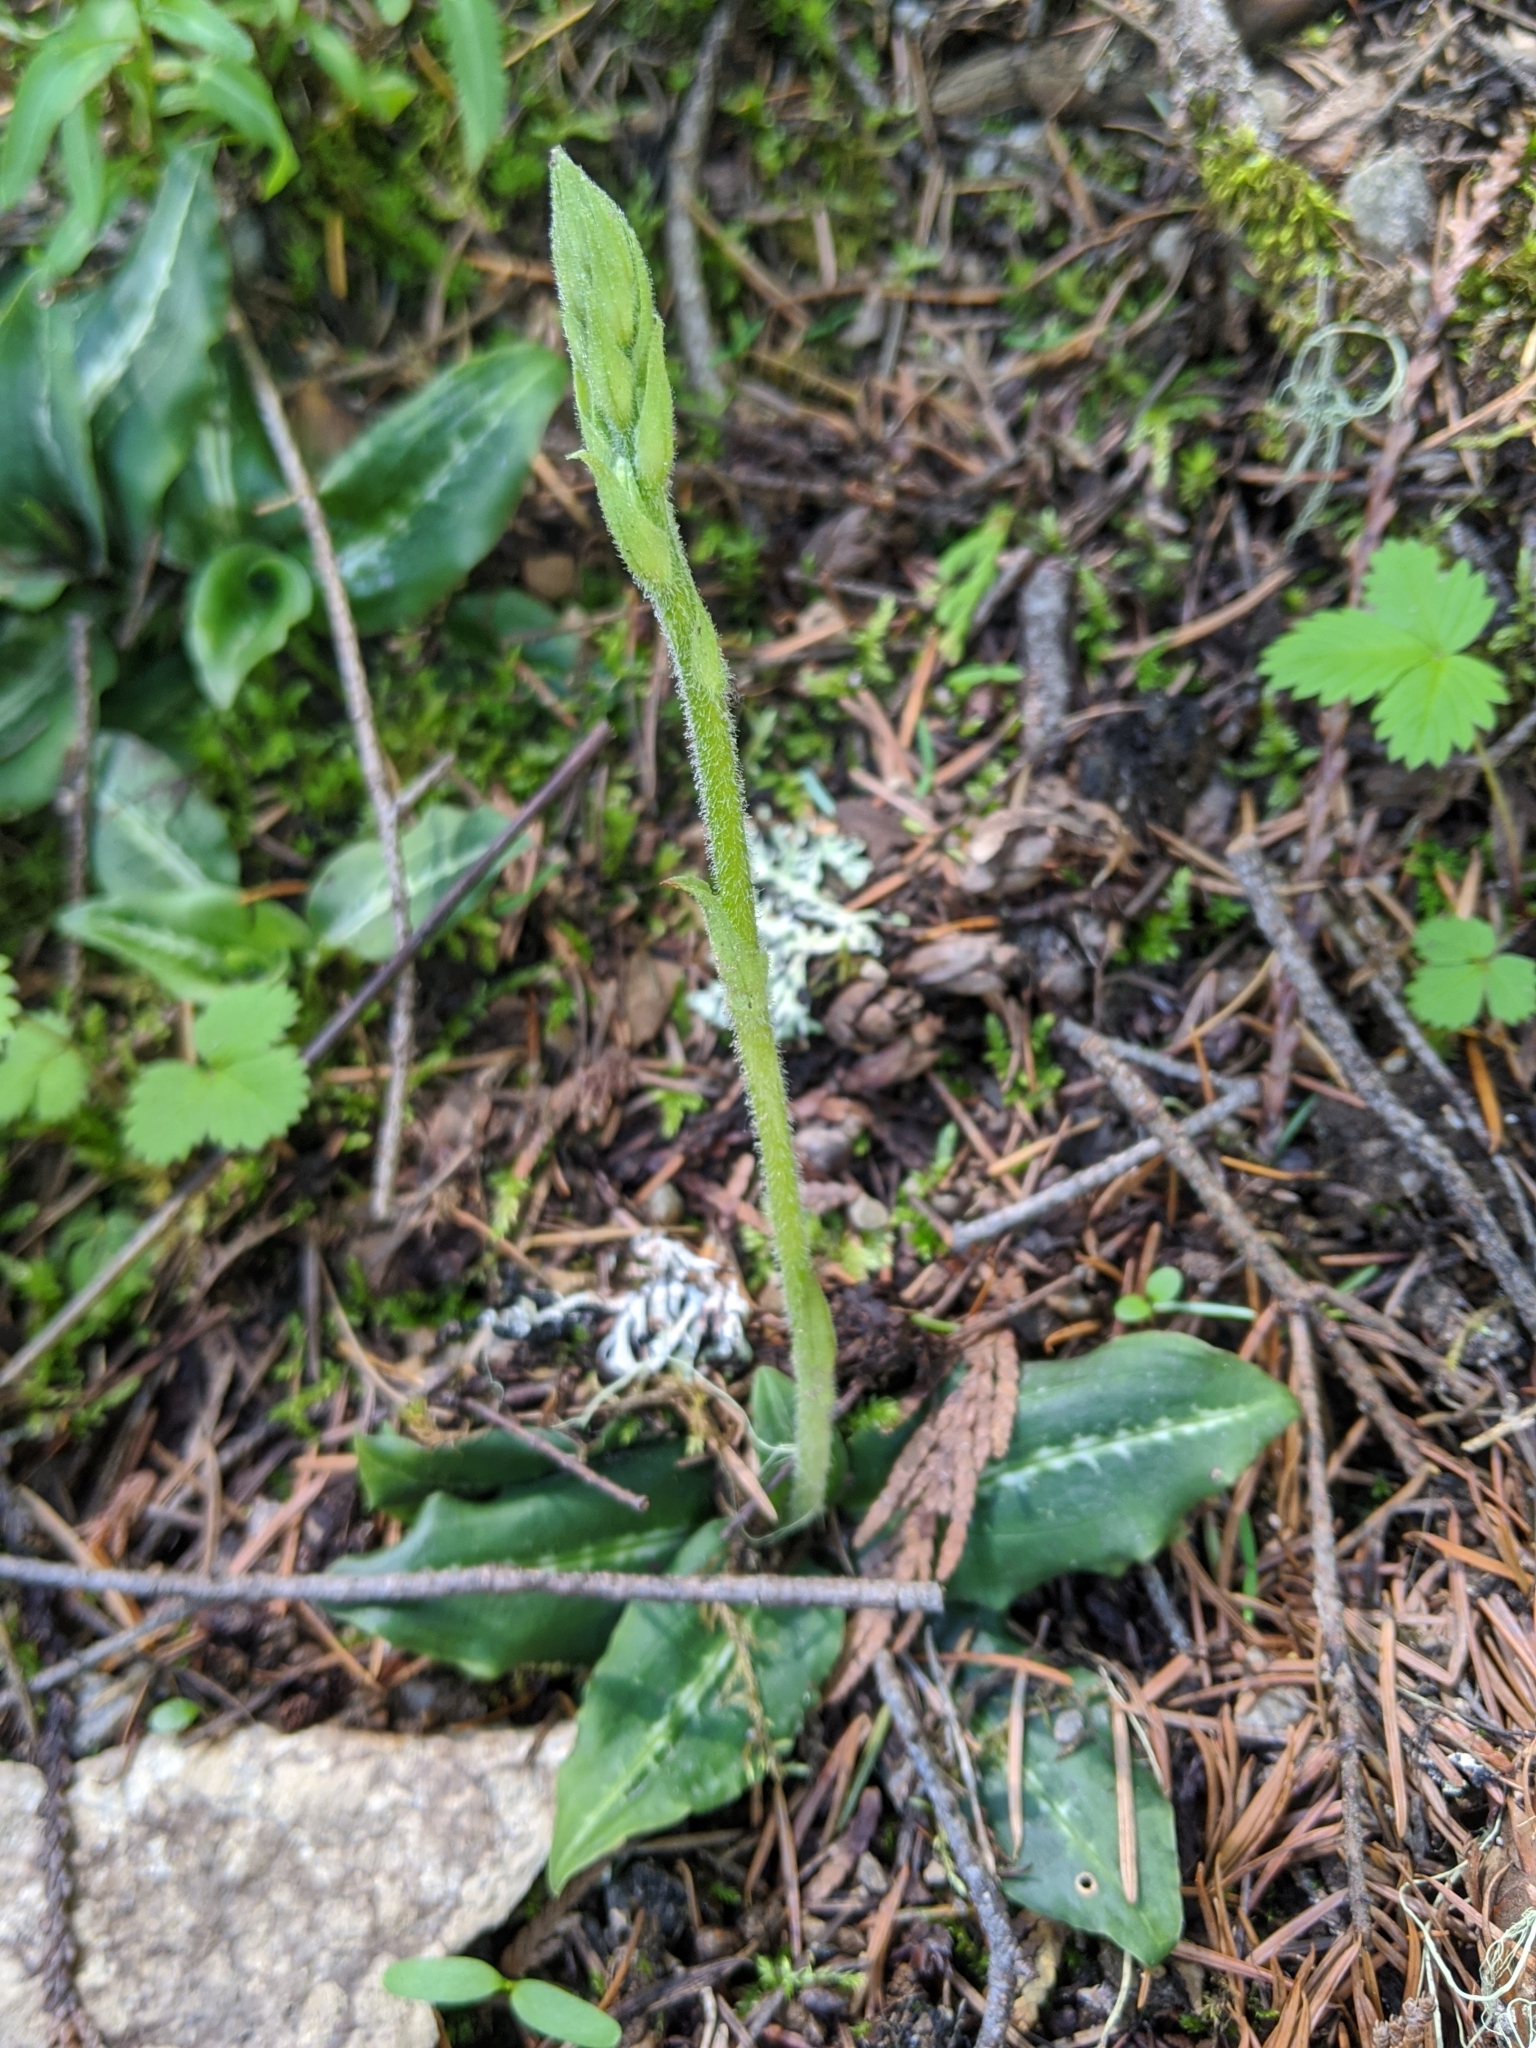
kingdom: Plantae
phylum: Tracheophyta
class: Liliopsida
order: Asparagales
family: Orchidaceae
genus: Goodyera
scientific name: Goodyera oblongifolia
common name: Giant rattlesnake-plantain
